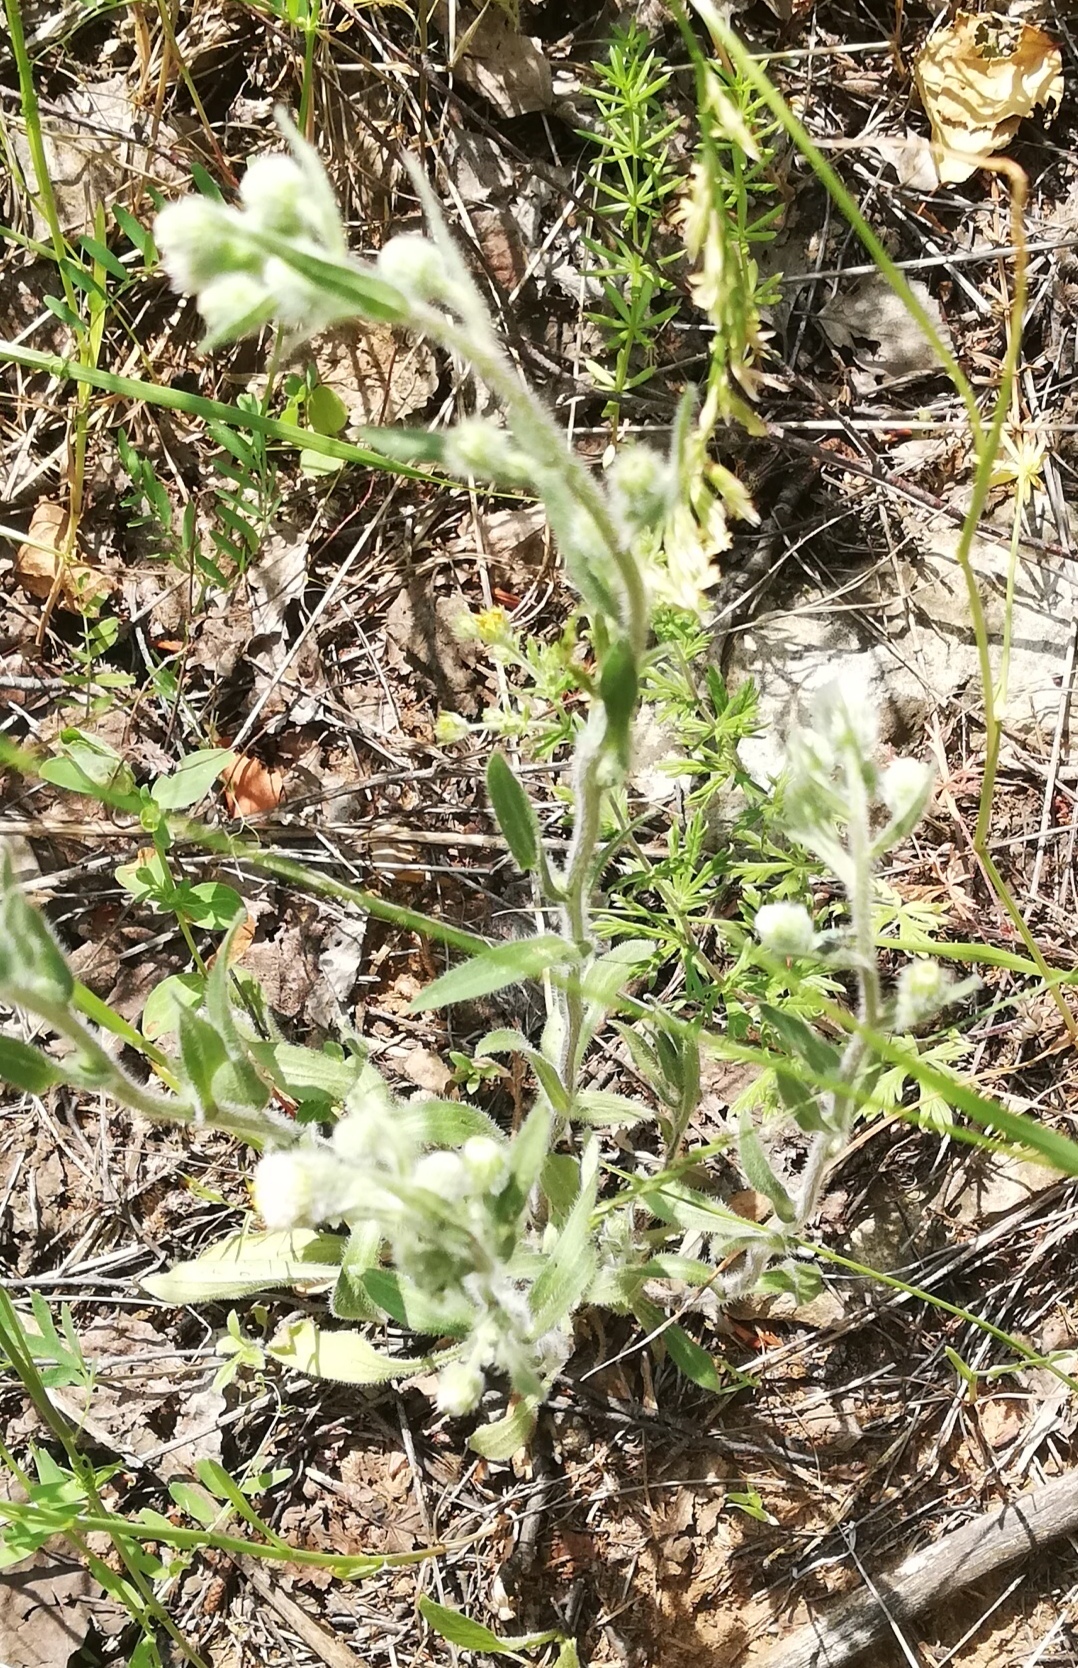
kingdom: Plantae
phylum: Tracheophyta
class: Magnoliopsida
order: Asterales
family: Asteraceae
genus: Erigeron
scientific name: Erigeron acris
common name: Blue fleabane
